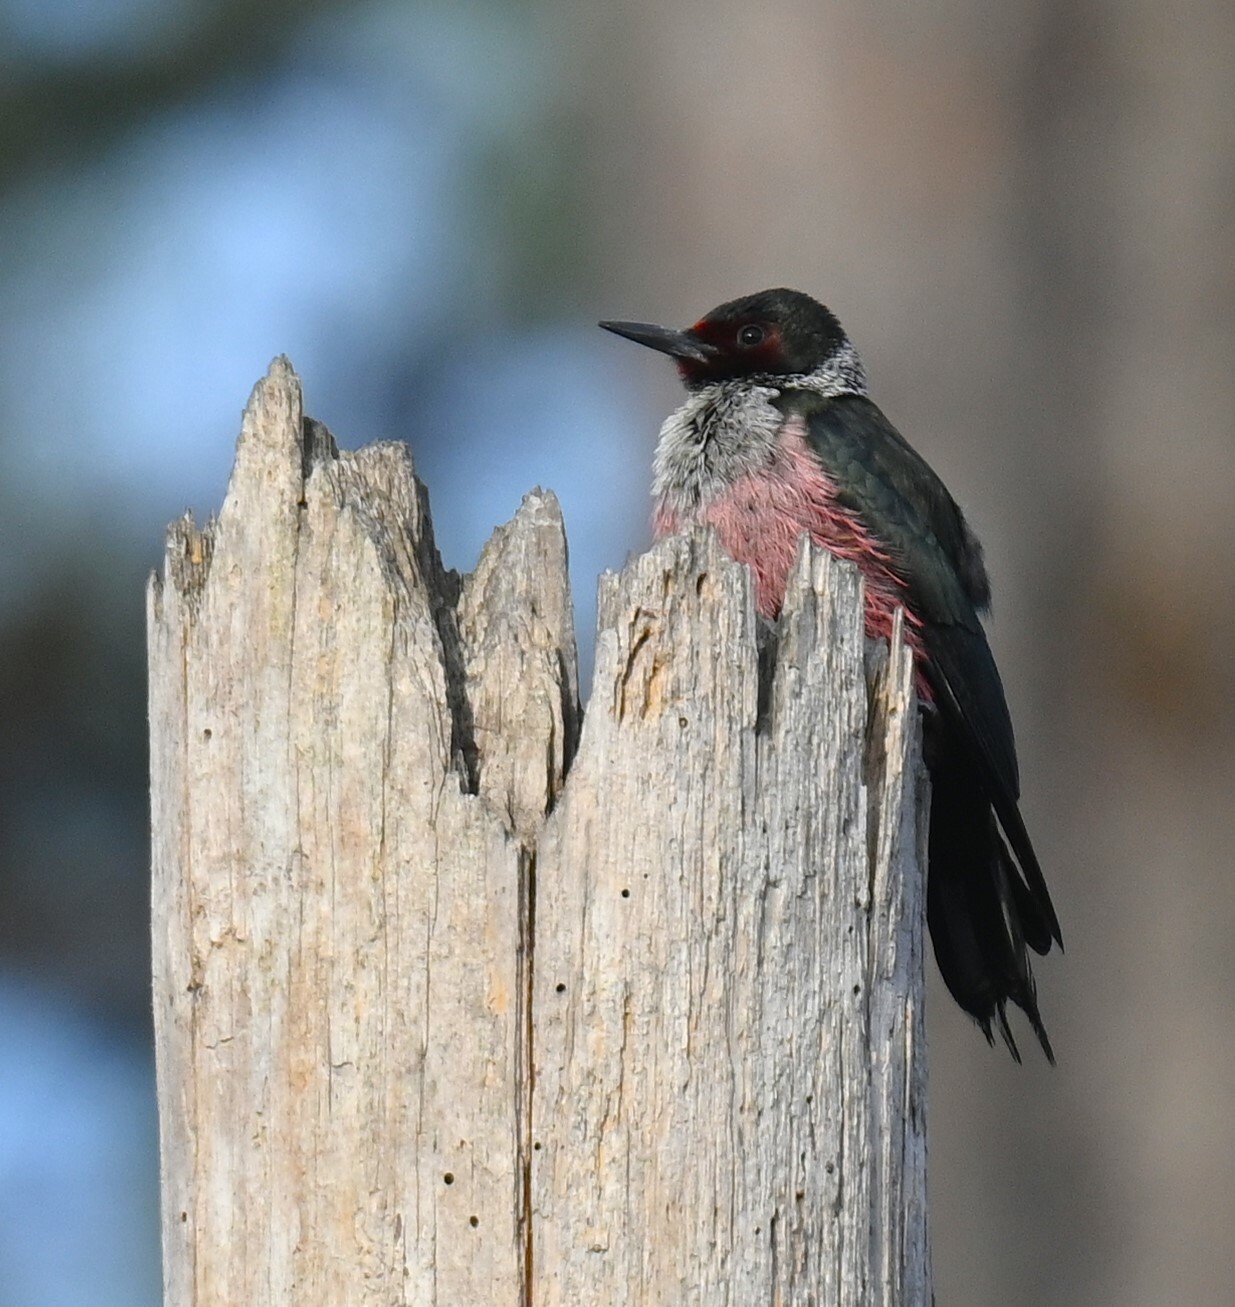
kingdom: Animalia
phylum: Chordata
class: Aves
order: Piciformes
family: Picidae
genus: Melanerpes
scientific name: Melanerpes lewis
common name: Lewis's woodpecker
